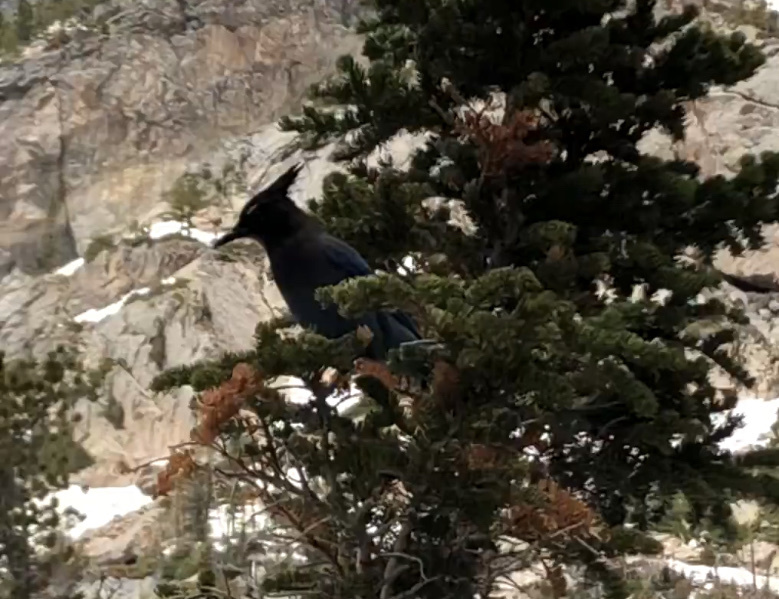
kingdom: Animalia
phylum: Chordata
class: Aves
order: Passeriformes
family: Corvidae
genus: Cyanocitta
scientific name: Cyanocitta stelleri
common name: Steller's jay
